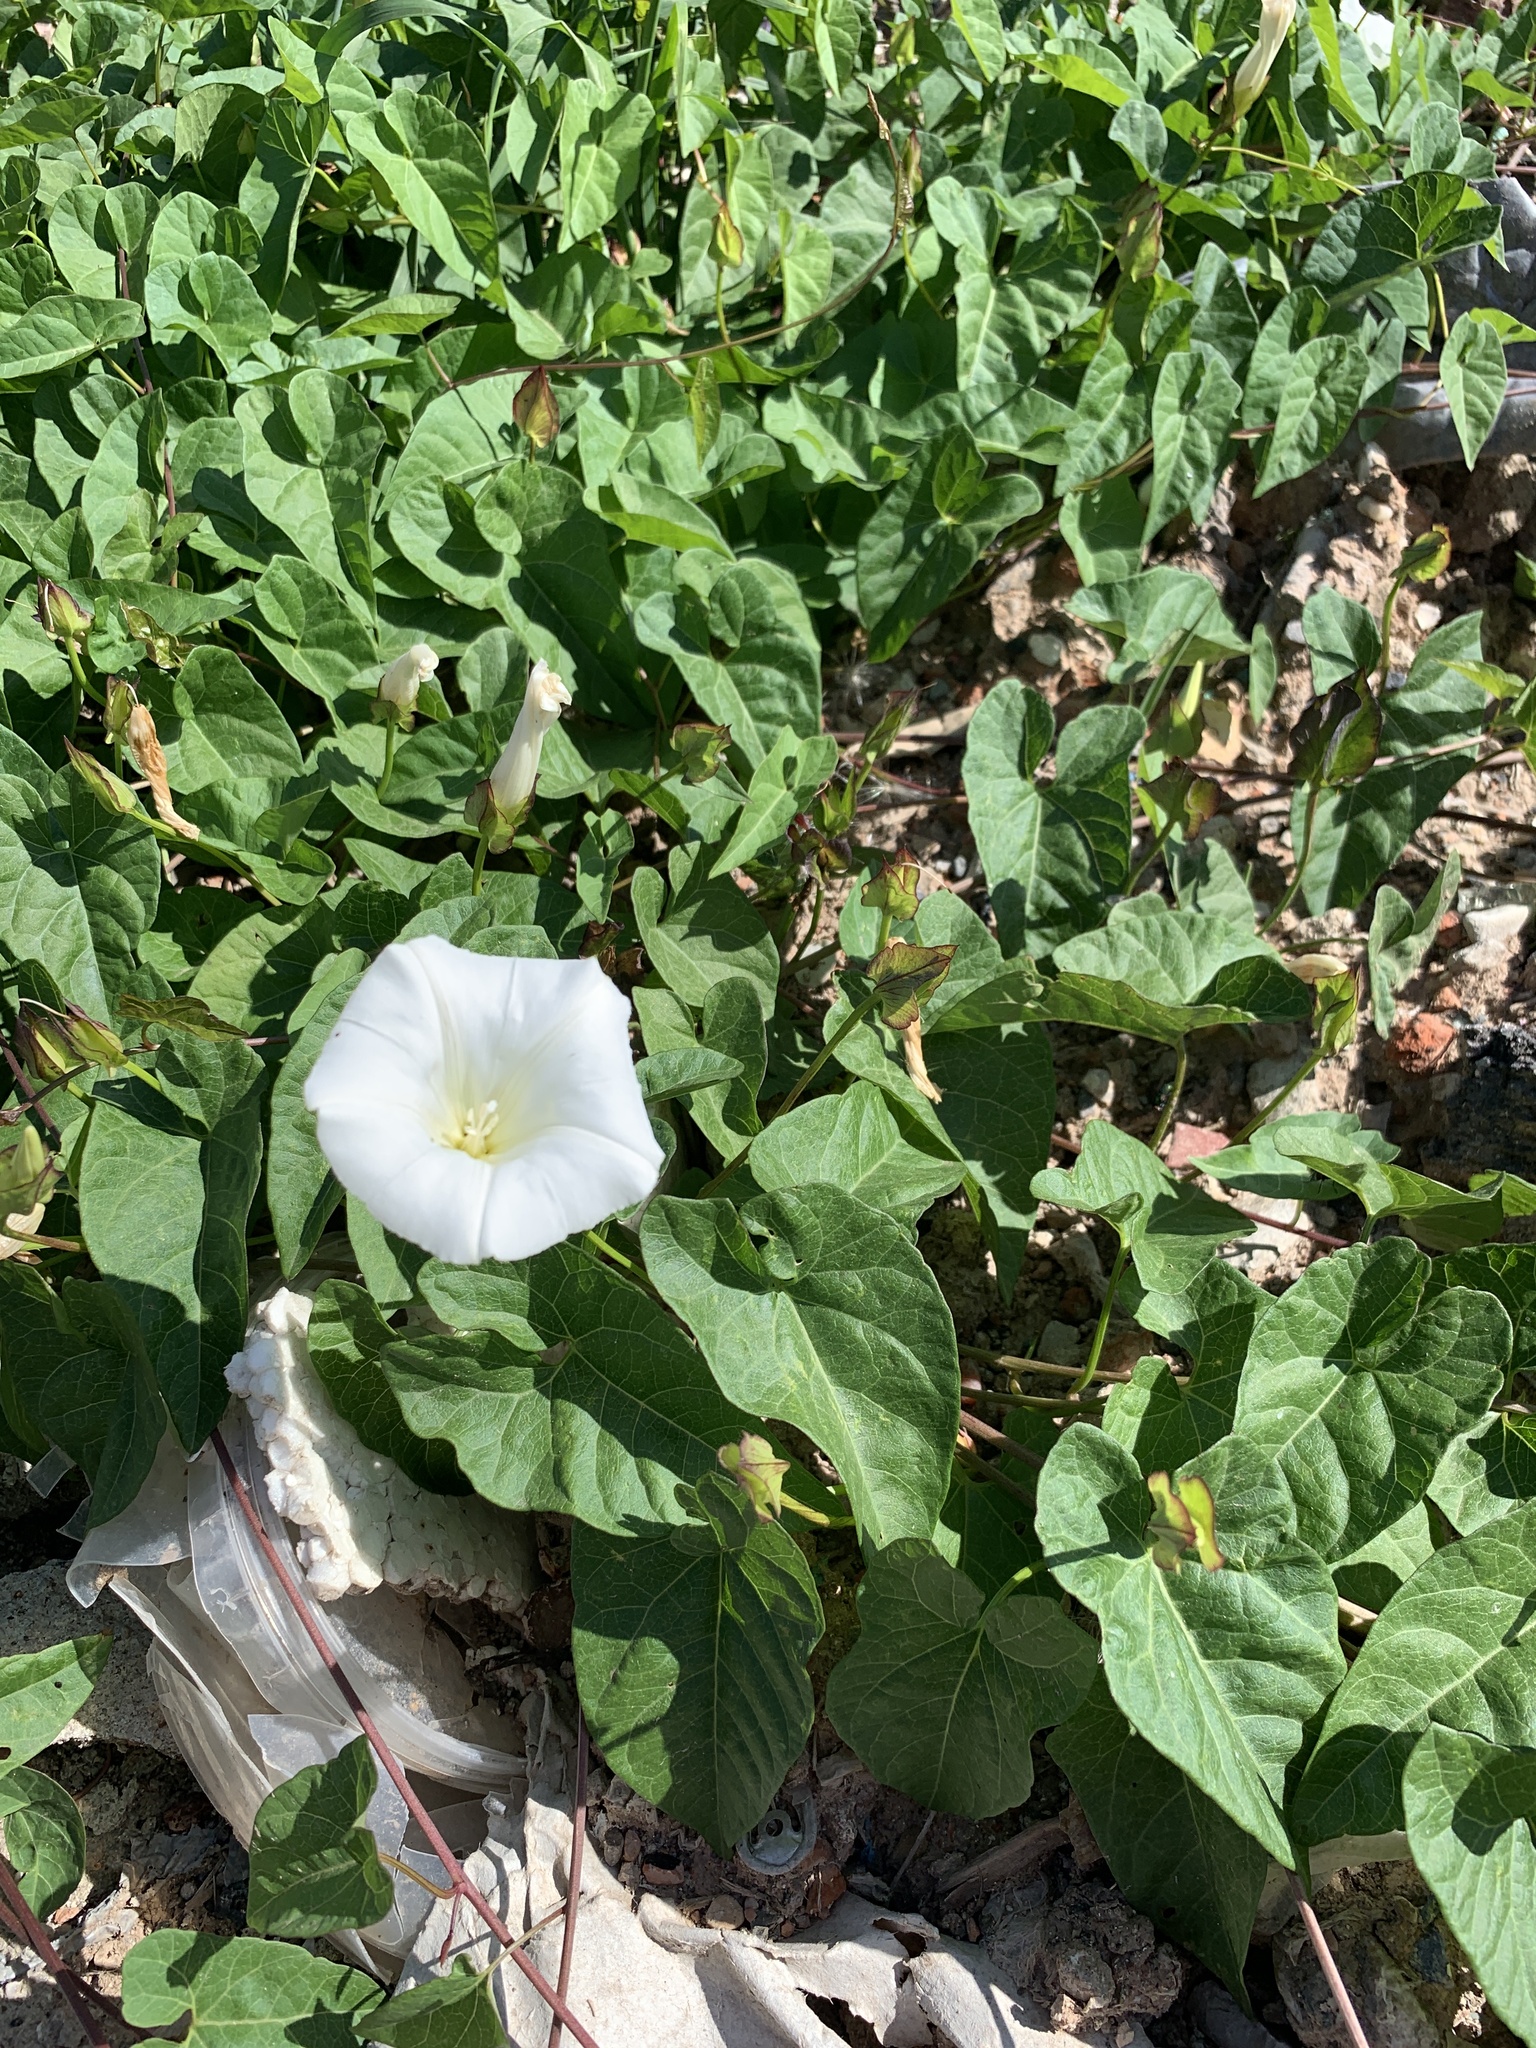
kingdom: Plantae
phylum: Tracheophyta
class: Magnoliopsida
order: Solanales
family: Convolvulaceae
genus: Calystegia
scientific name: Calystegia sepium
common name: Hedge bindweed
